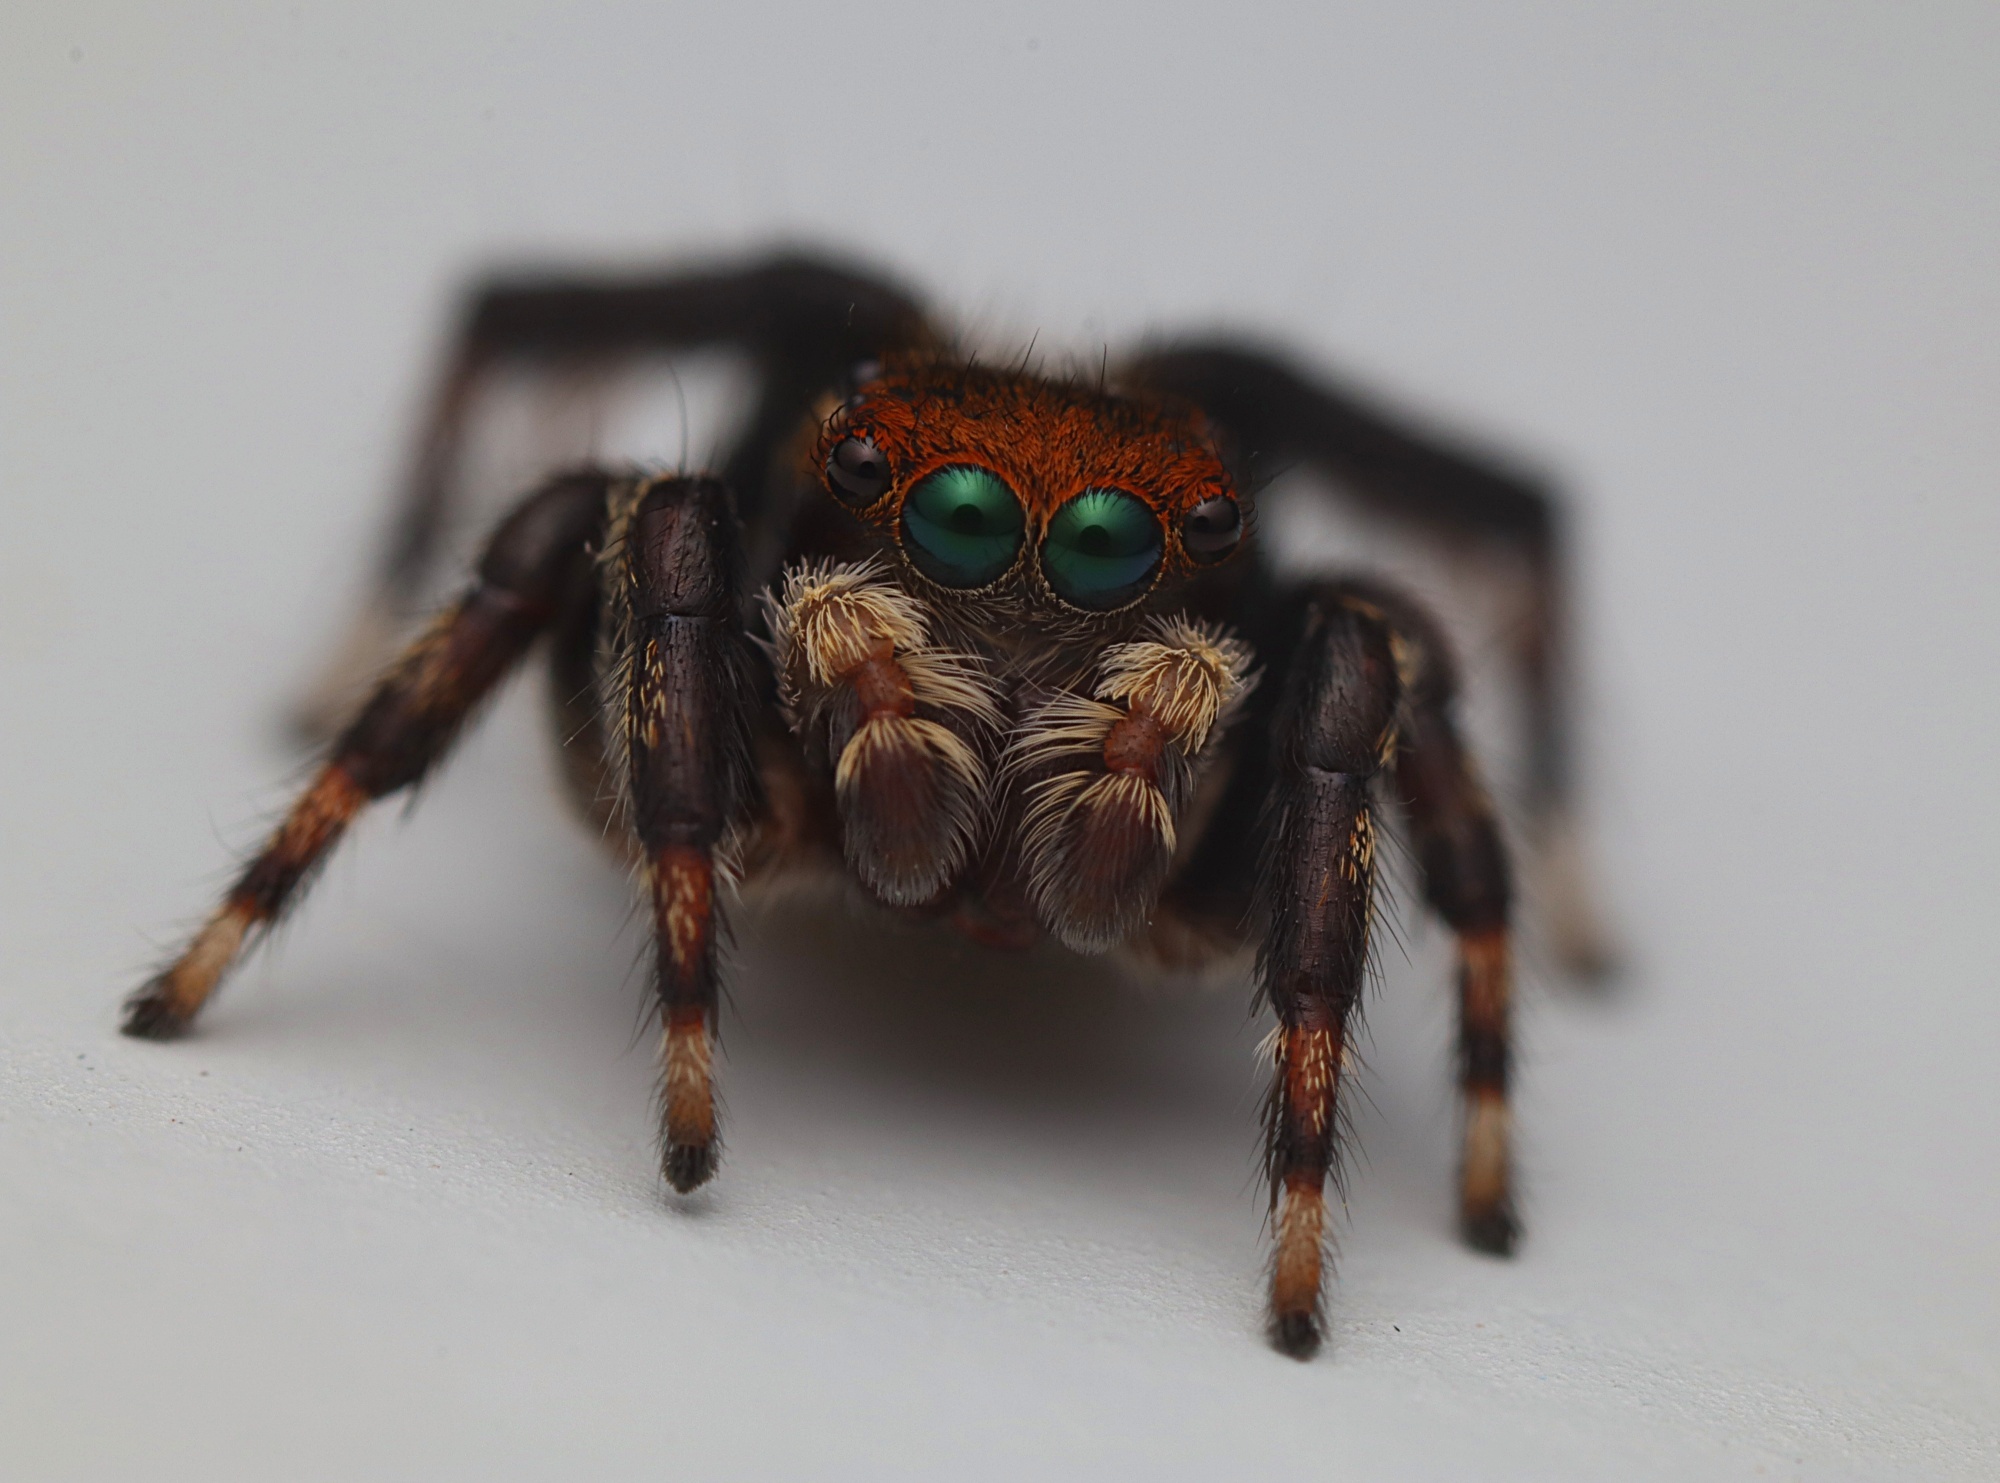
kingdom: Animalia
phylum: Arthropoda
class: Arachnida
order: Araneae
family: Salticidae
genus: Maratus
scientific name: Maratus griseus
